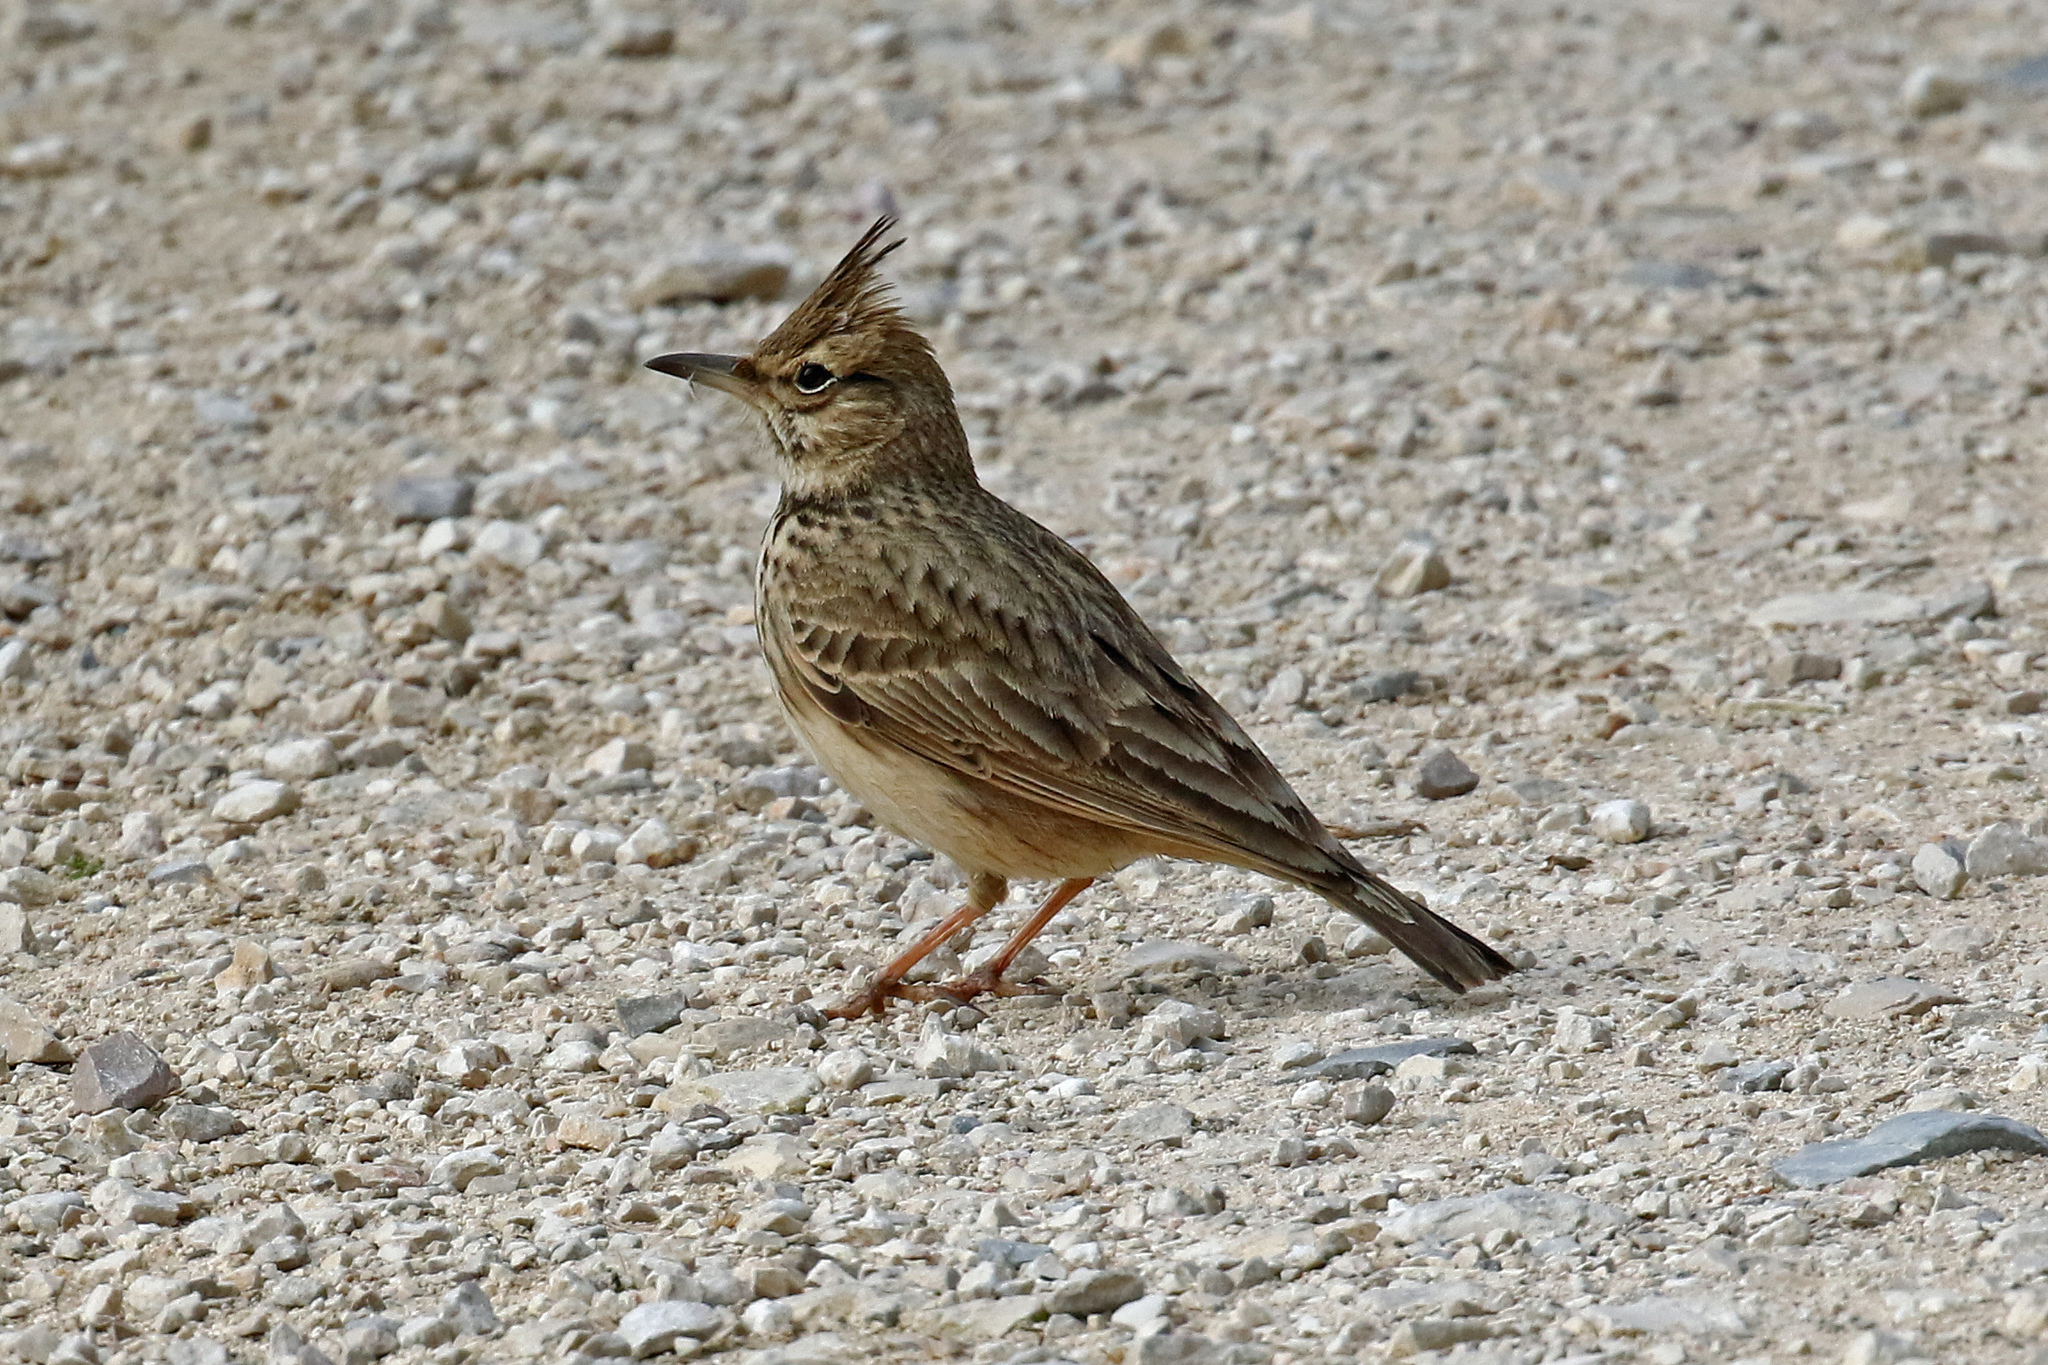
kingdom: Animalia
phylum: Chordata
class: Aves
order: Passeriformes
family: Alaudidae
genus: Galerida
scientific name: Galerida cristata
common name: Crested lark
